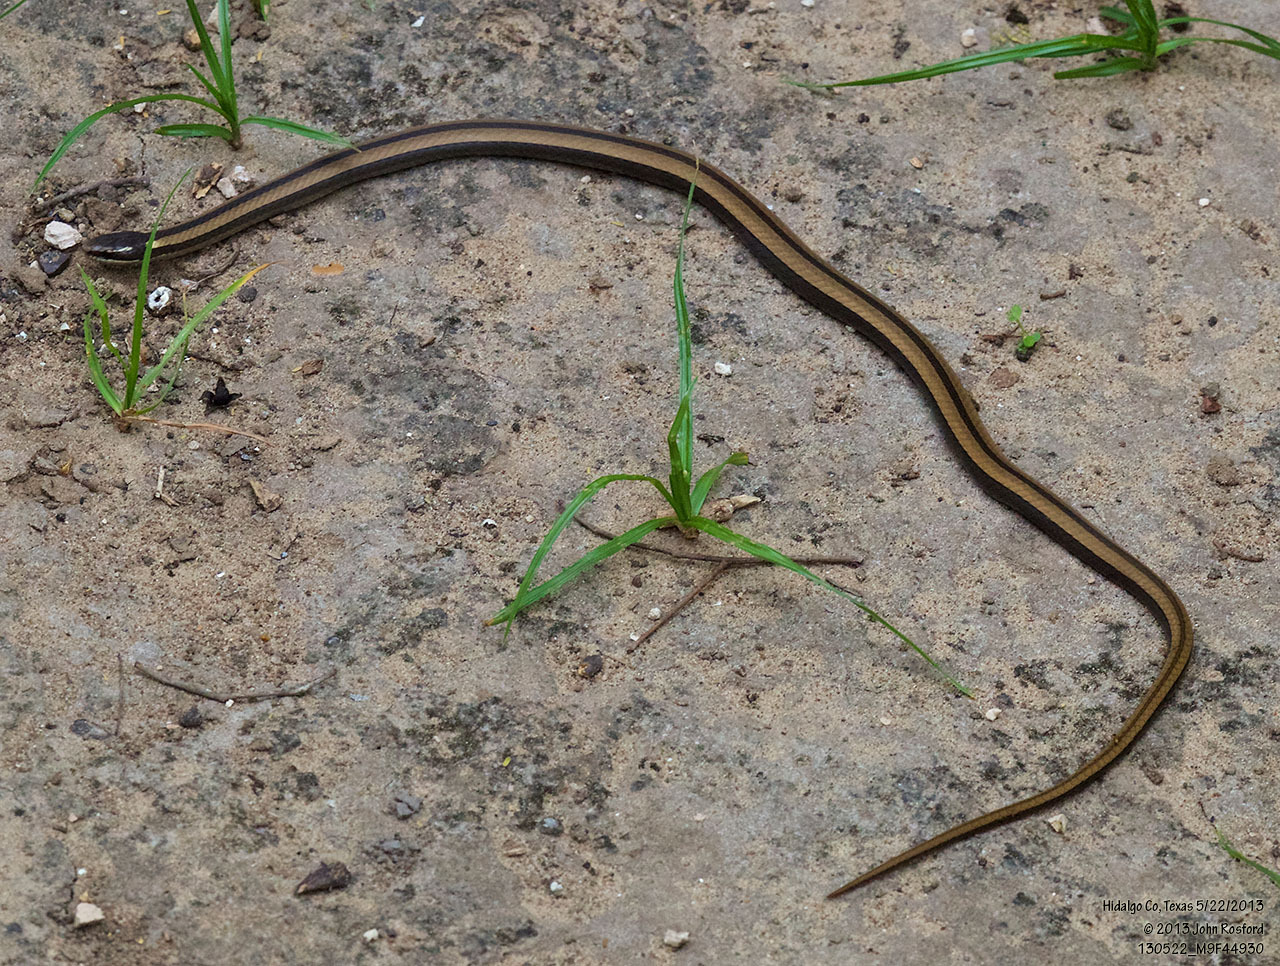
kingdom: Animalia
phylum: Chordata
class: Squamata
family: Colubridae
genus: Coniophanes
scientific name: Coniophanes imperialis
